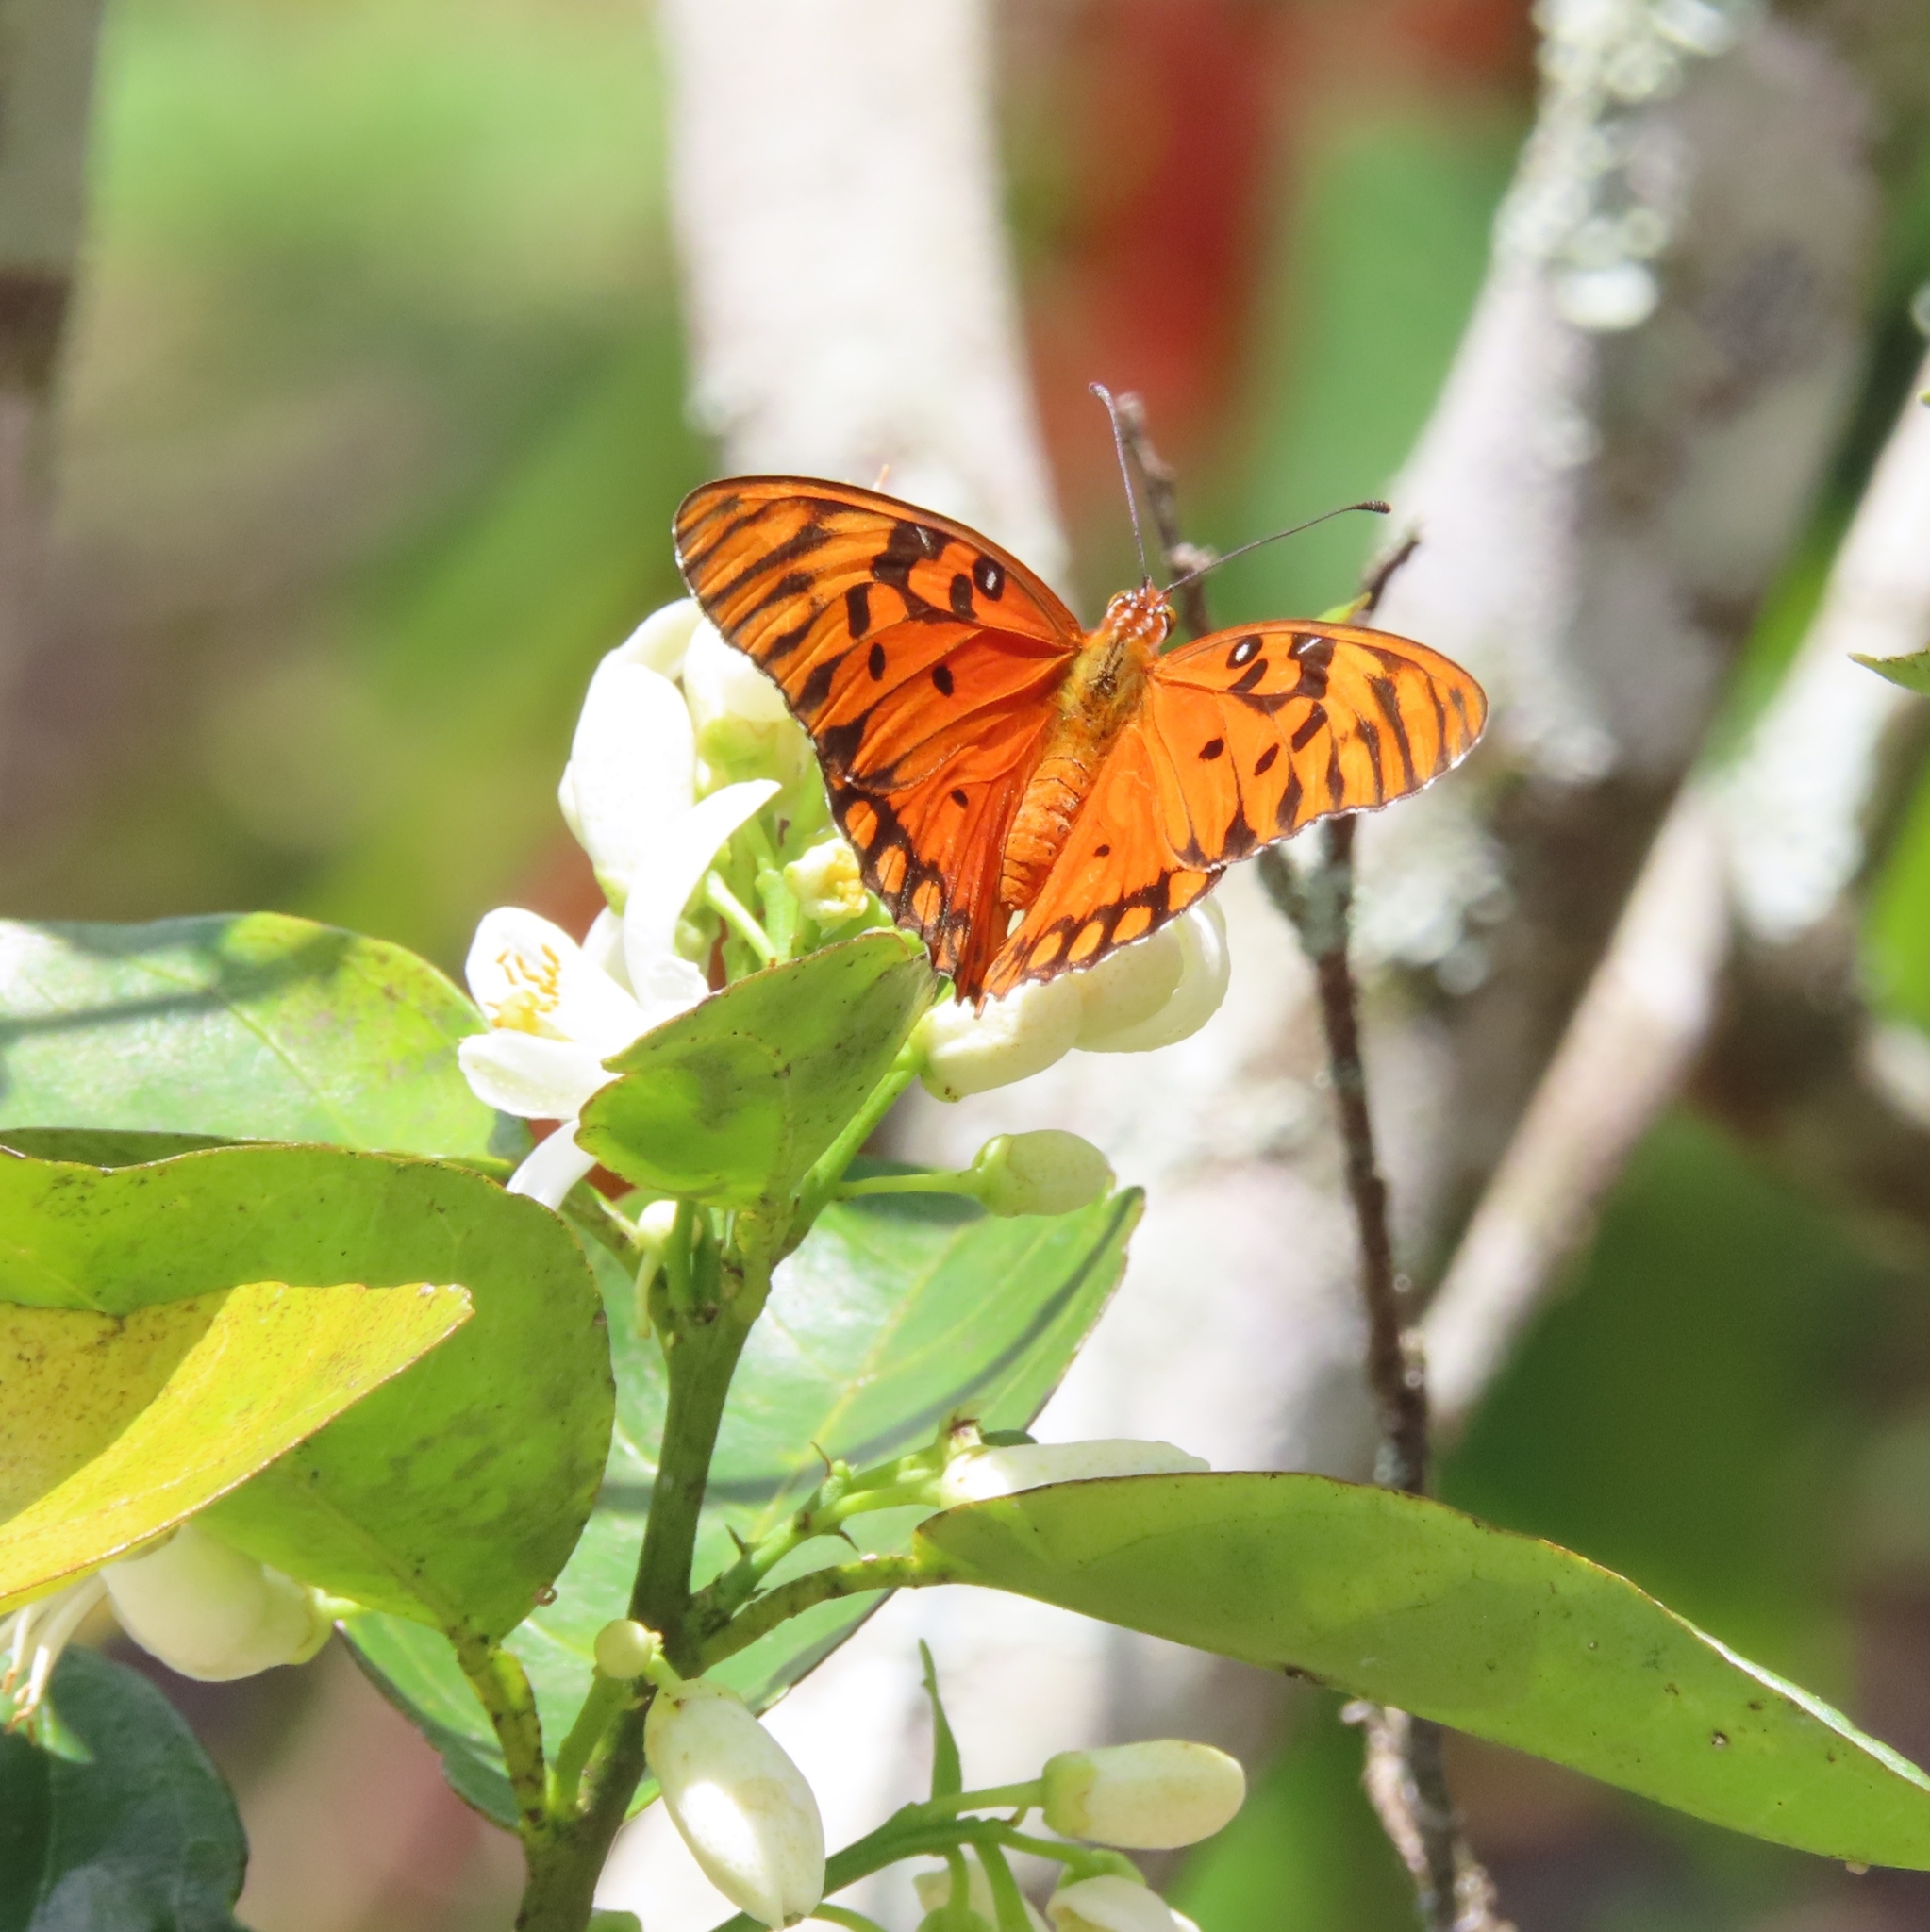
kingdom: Animalia
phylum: Arthropoda
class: Insecta
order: Lepidoptera
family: Nymphalidae
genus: Dione
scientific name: Dione vanillae
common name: Gulf fritillary
